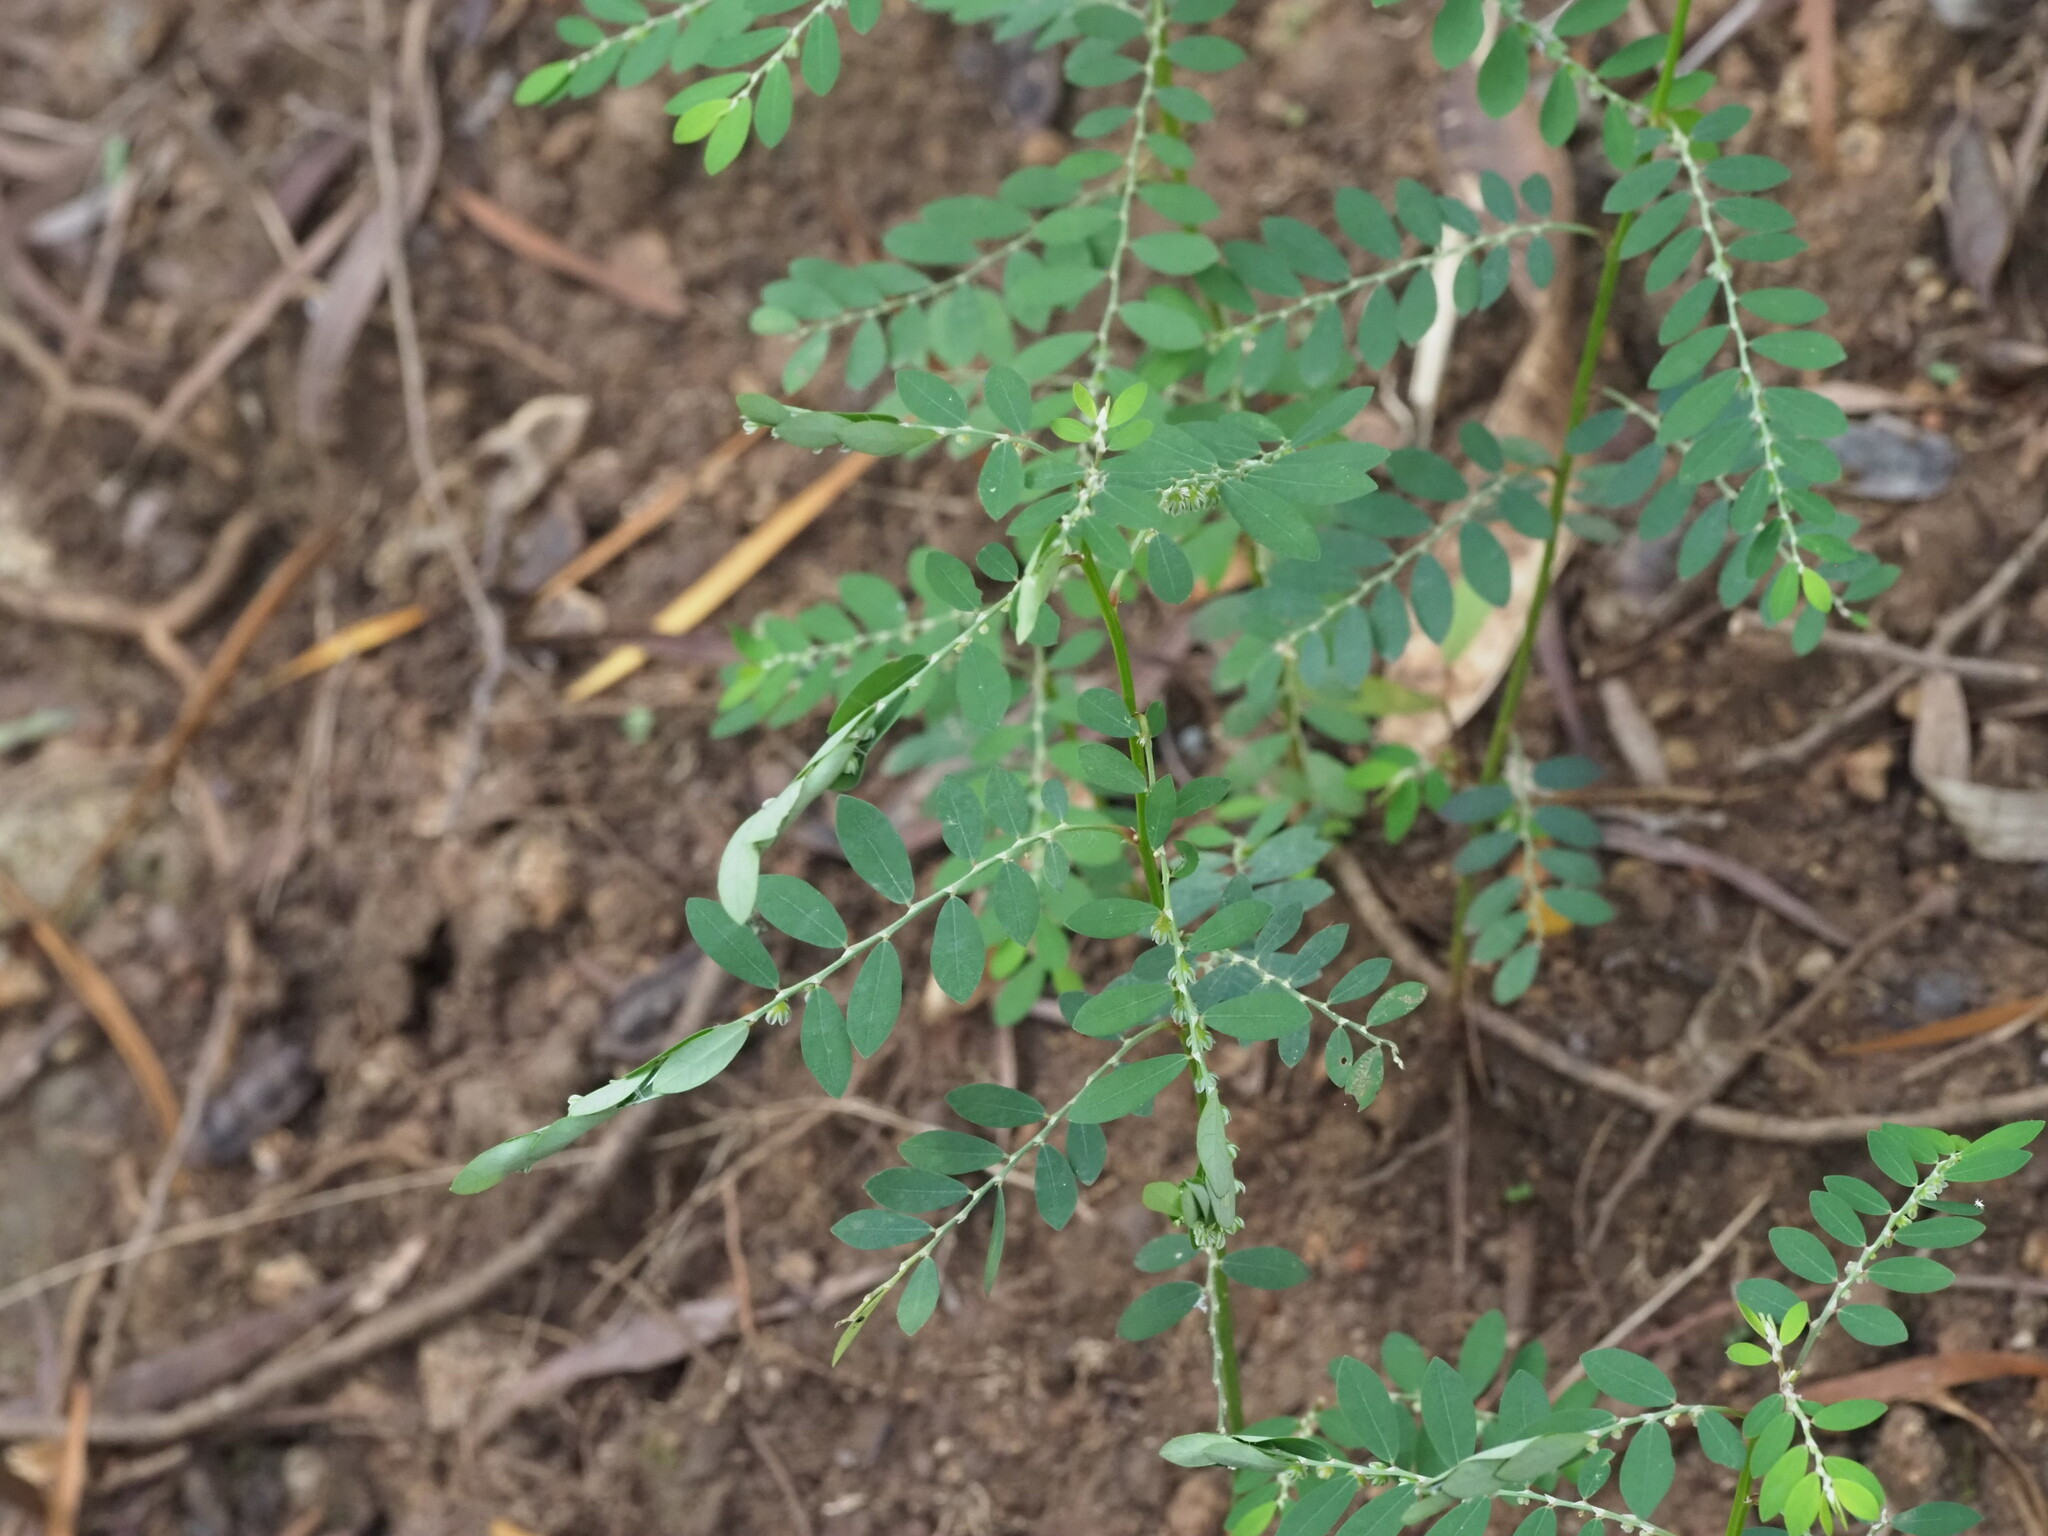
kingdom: Animalia
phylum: Arthropoda
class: Insecta
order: Lepidoptera
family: Tortricidae
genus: Cacocharis
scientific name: Cacocharis cymotoma
